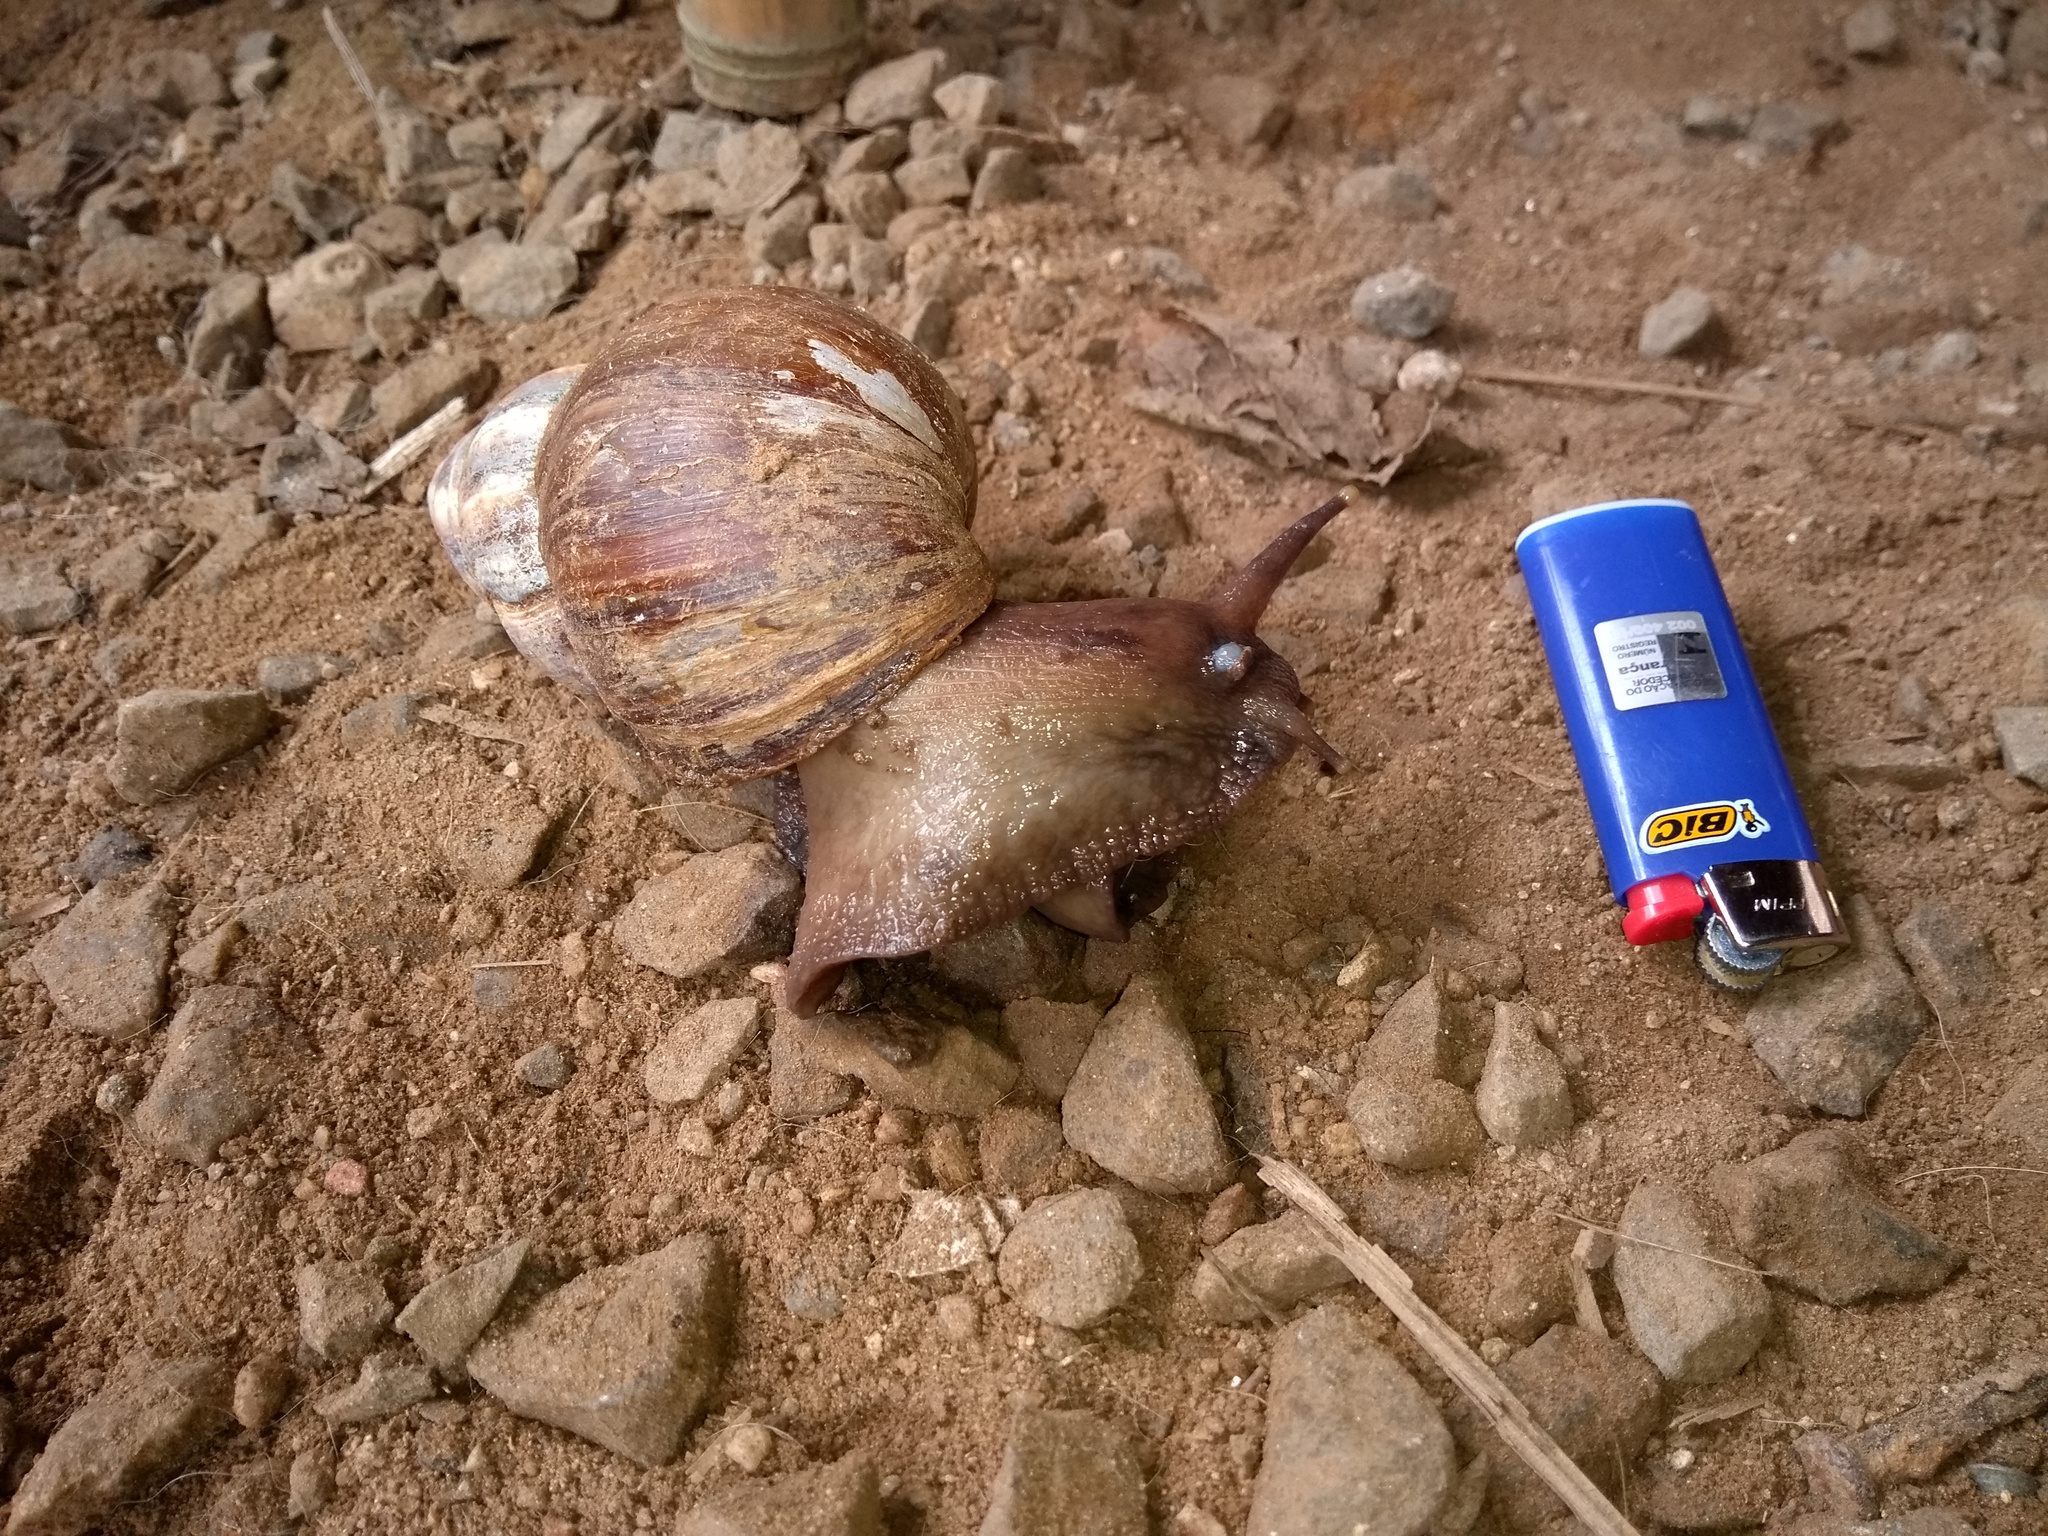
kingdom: Animalia
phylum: Mollusca
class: Gastropoda
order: Stylommatophora
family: Achatinidae
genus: Lissachatina
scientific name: Lissachatina fulica
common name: Giant african snail
